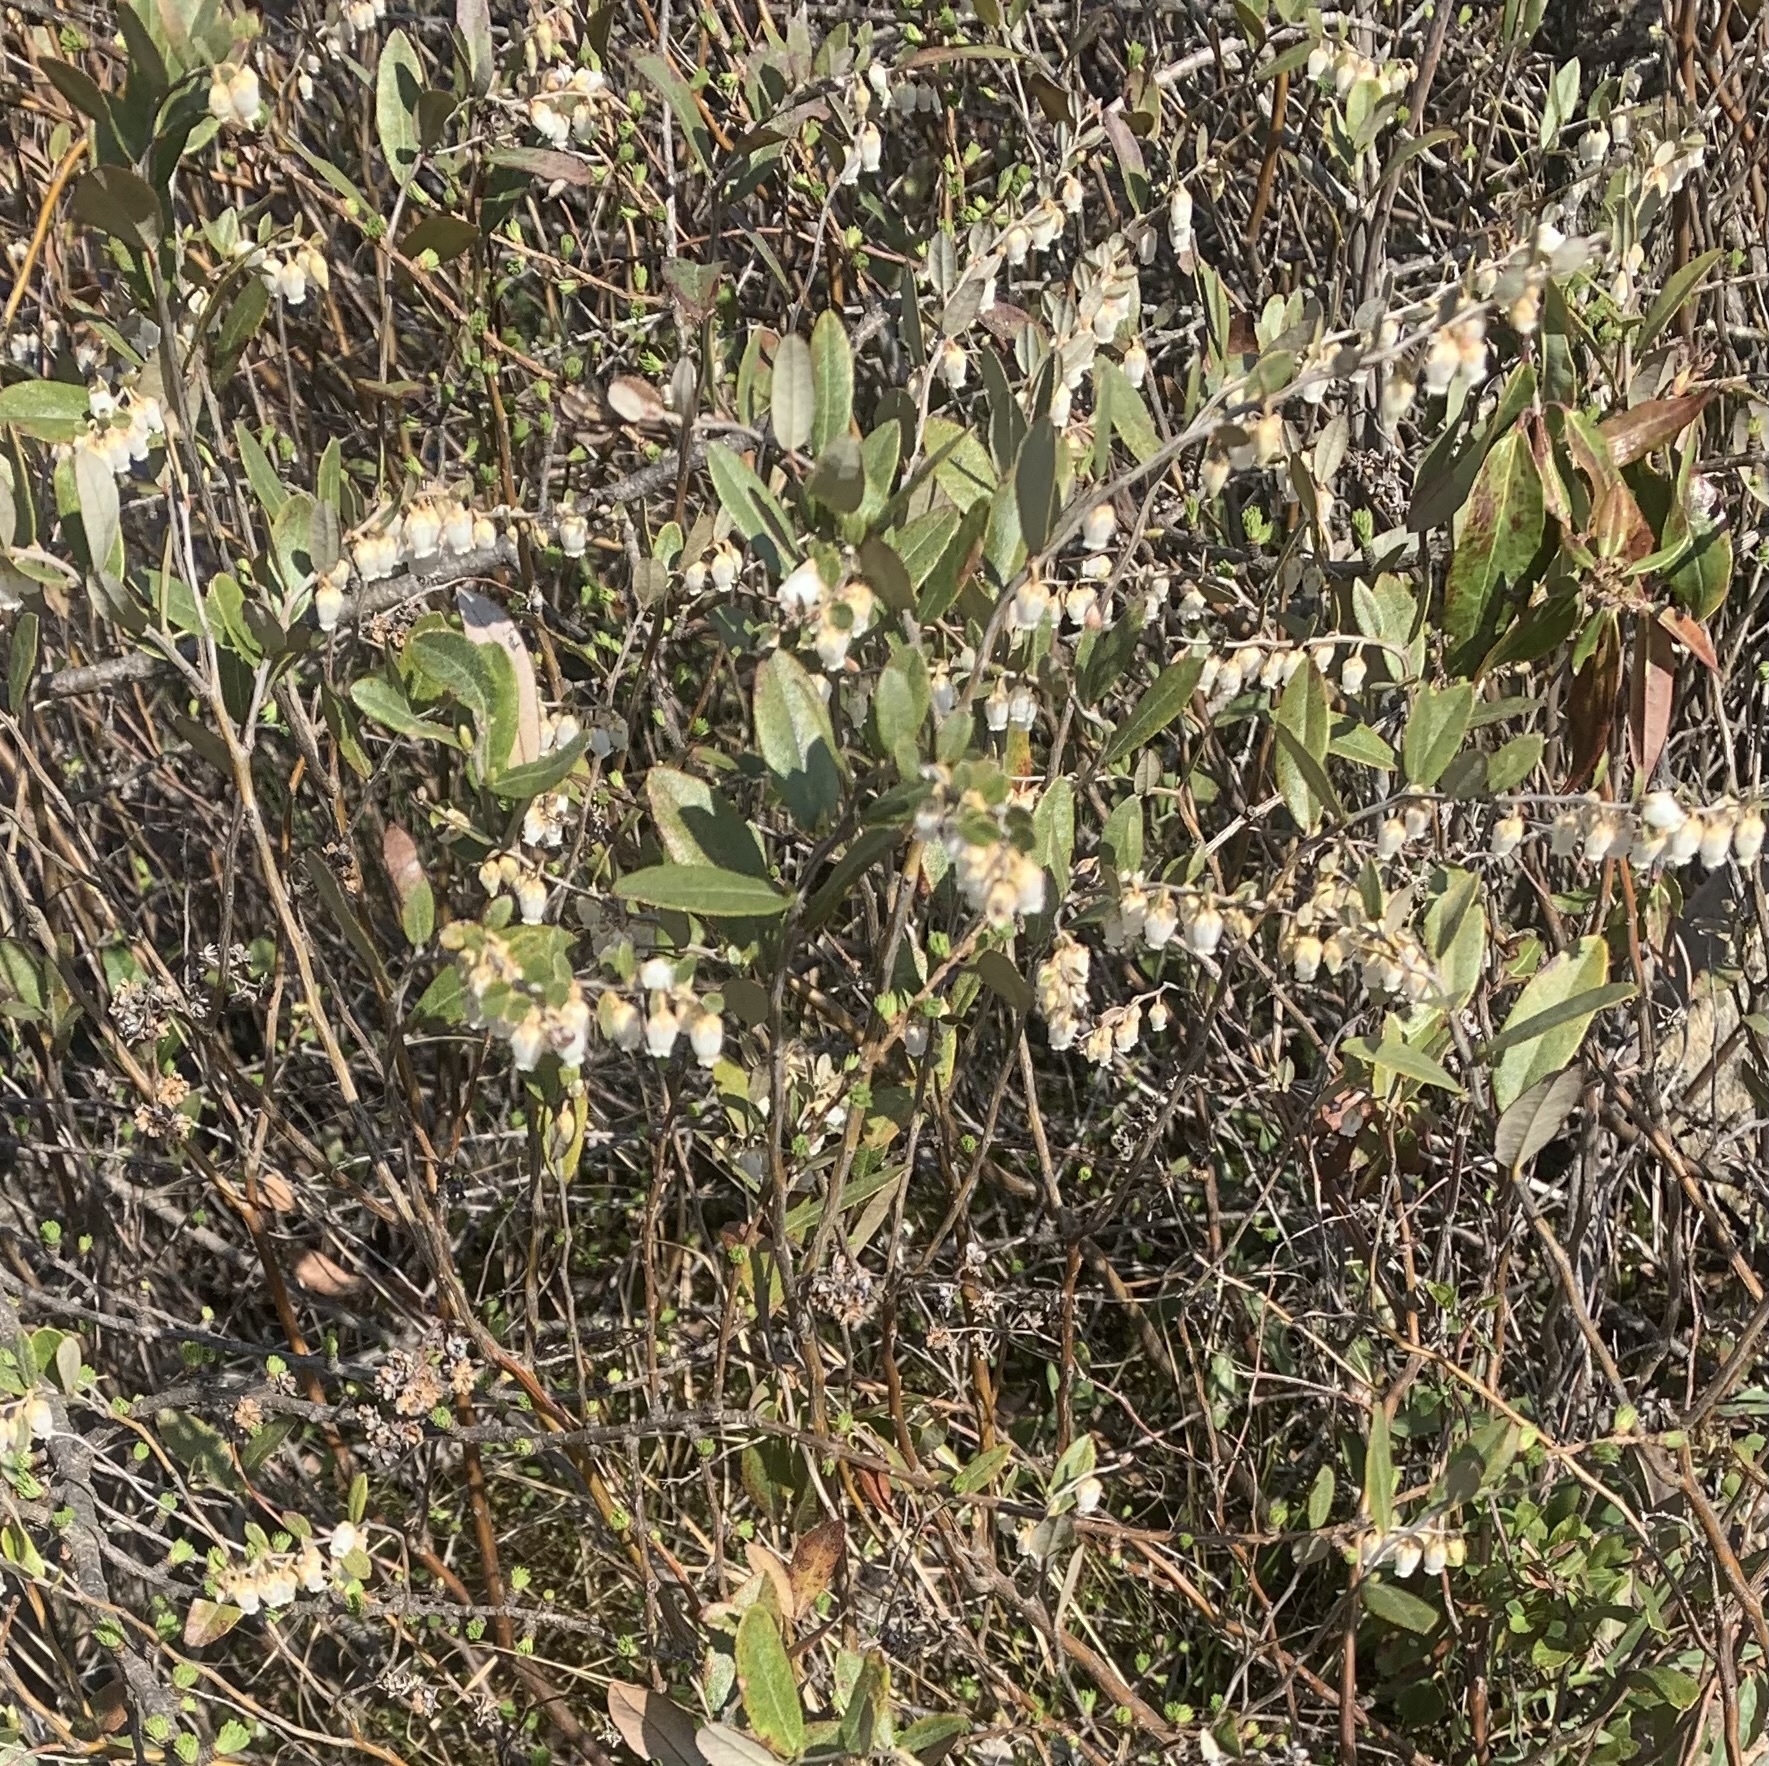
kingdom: Plantae
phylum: Tracheophyta
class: Magnoliopsida
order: Ericales
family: Ericaceae
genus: Chamaedaphne
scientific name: Chamaedaphne calyculata
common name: Leatherleaf
